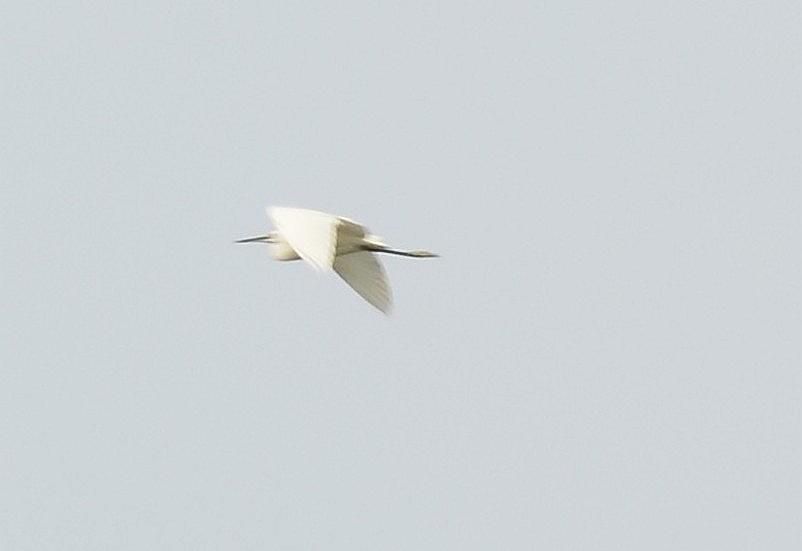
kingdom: Animalia
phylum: Chordata
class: Aves
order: Pelecaniformes
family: Ardeidae
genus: Egretta
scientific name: Egretta garzetta
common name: Little egret
